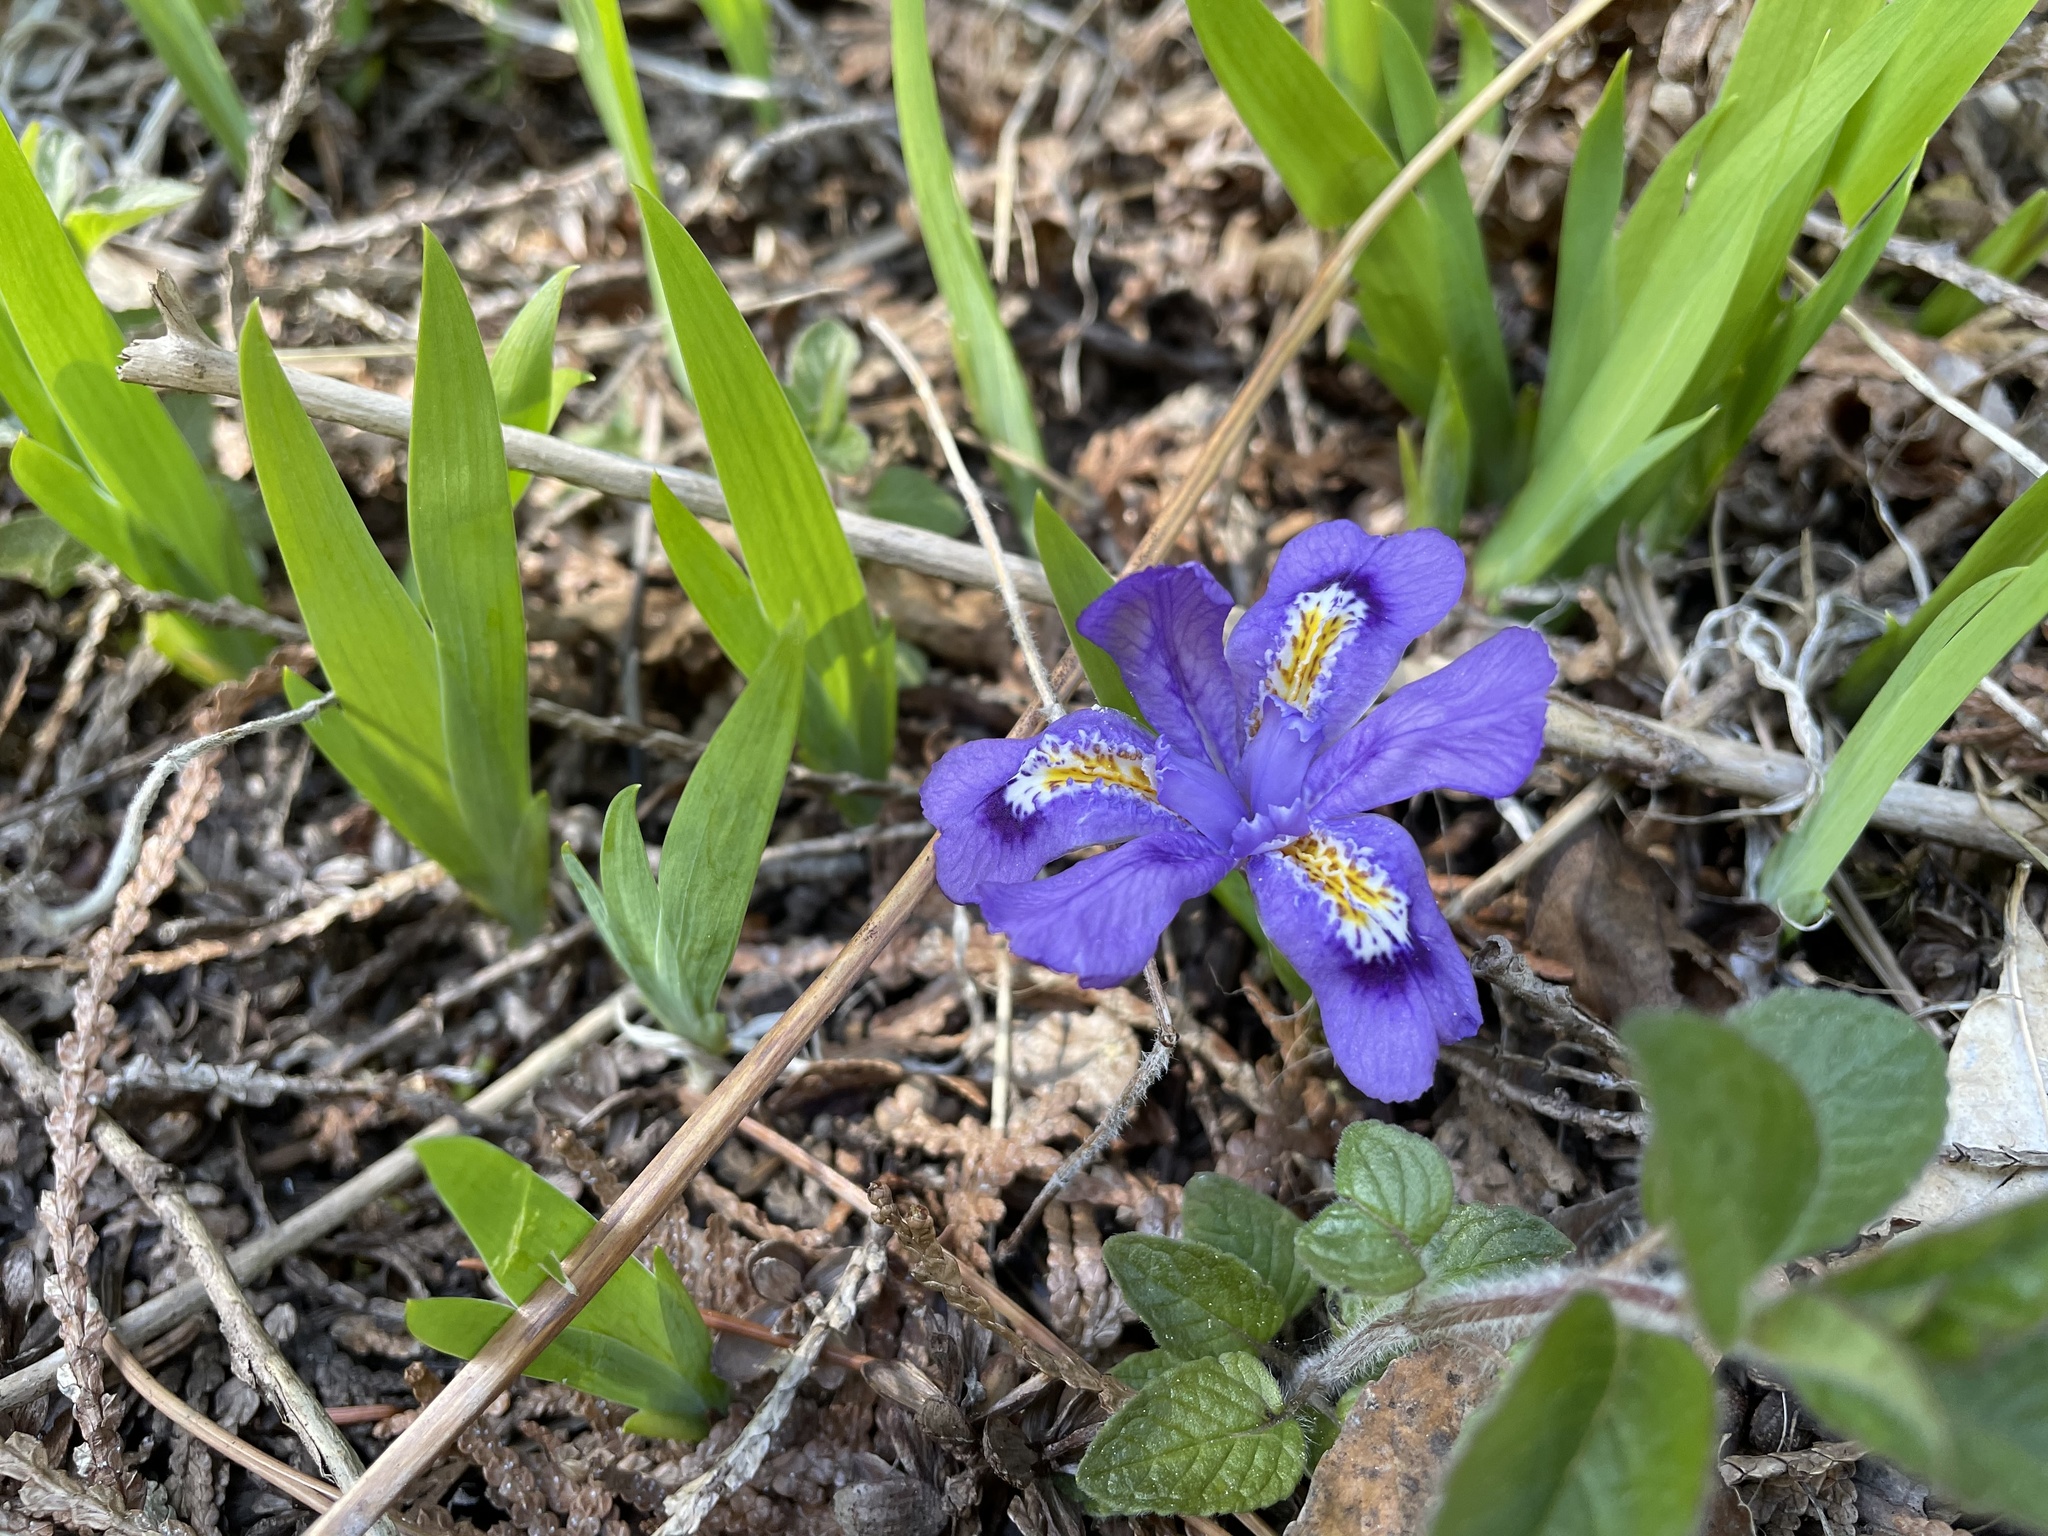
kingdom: Plantae
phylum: Tracheophyta
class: Liliopsida
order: Asparagales
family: Iridaceae
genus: Iris
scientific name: Iris lacustris
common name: Dwarf lake iris
